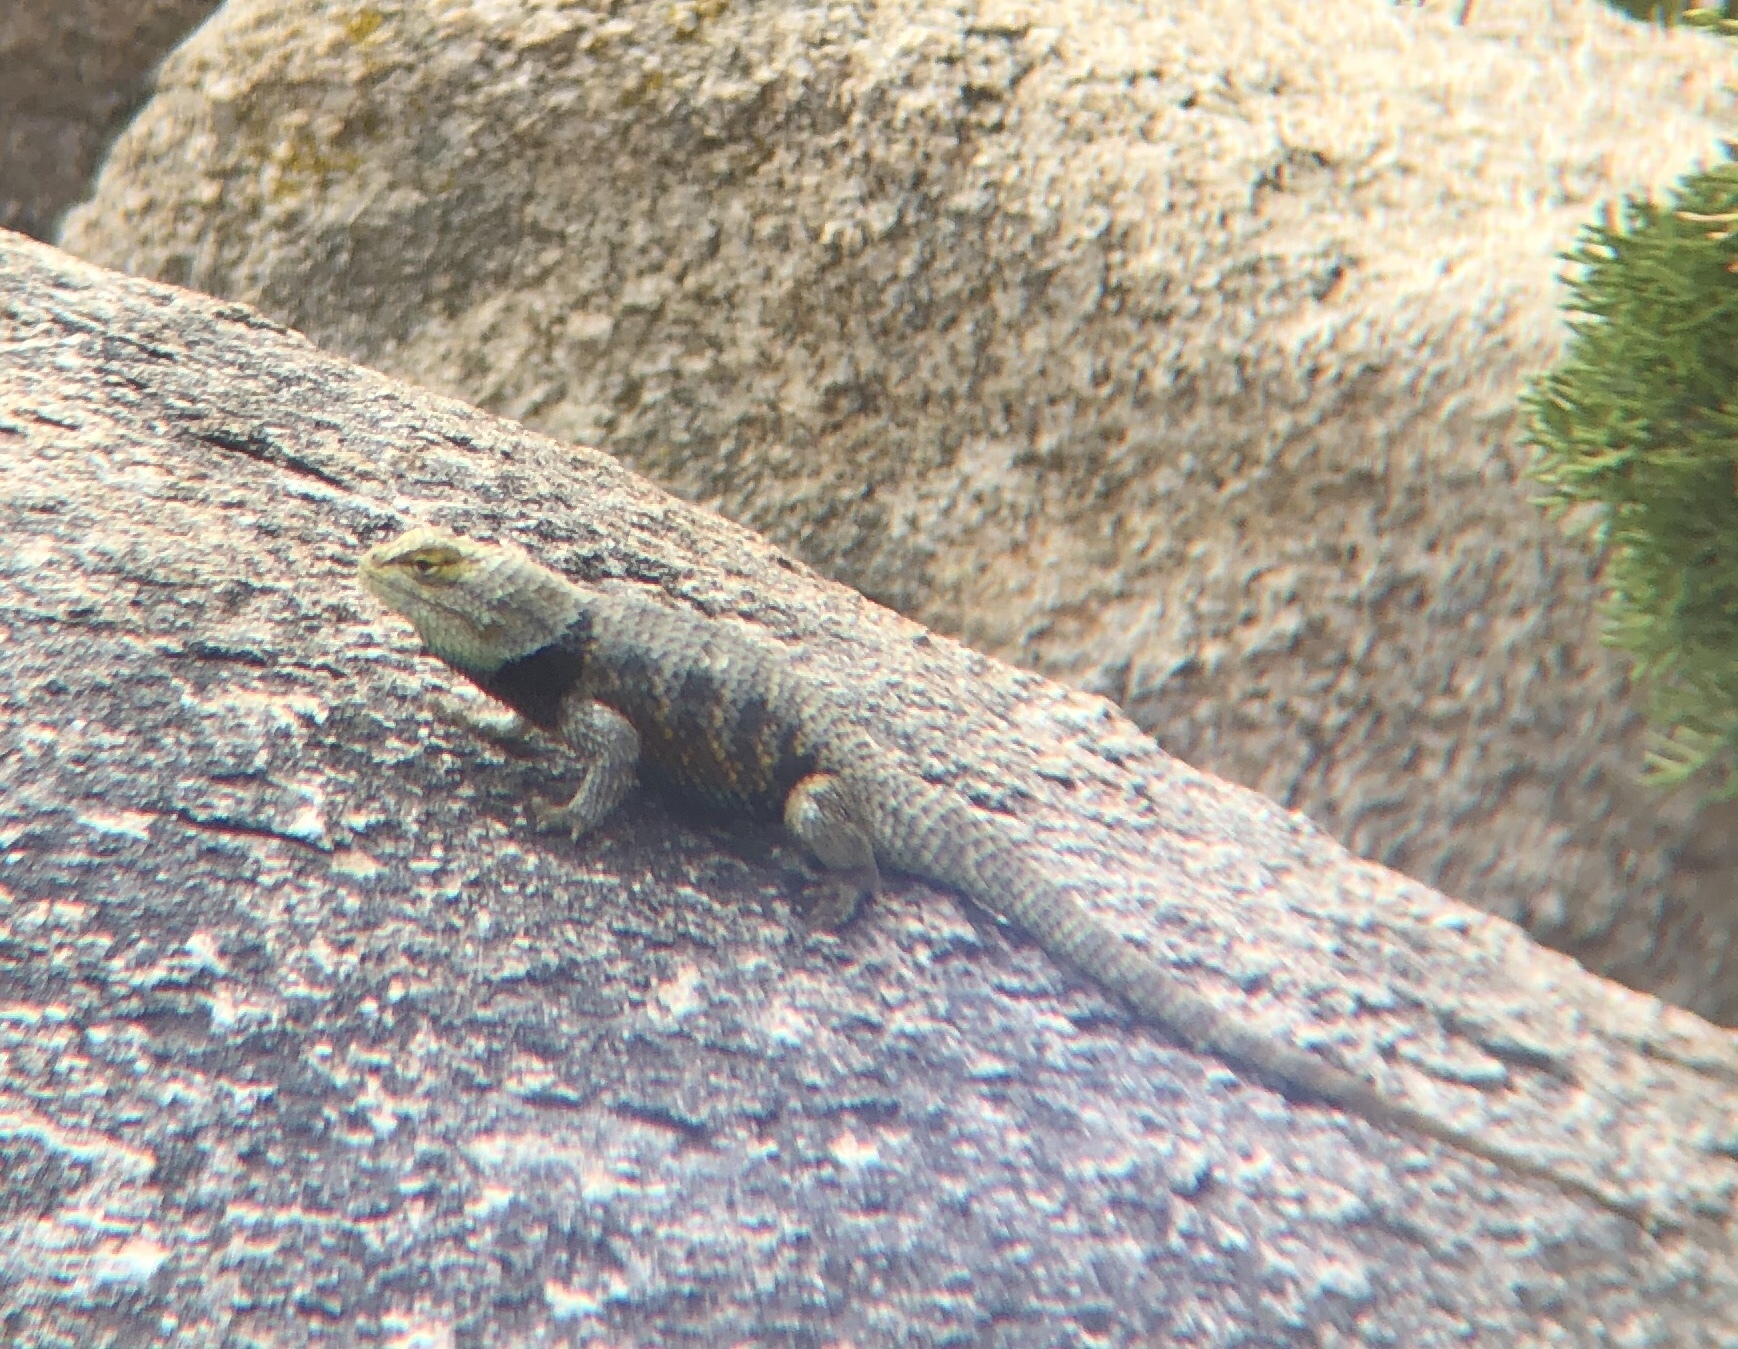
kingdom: Animalia
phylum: Chordata
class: Squamata
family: Phrynosomatidae
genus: Sceloporus
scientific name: Sceloporus magister
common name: Desert spiny lizard
